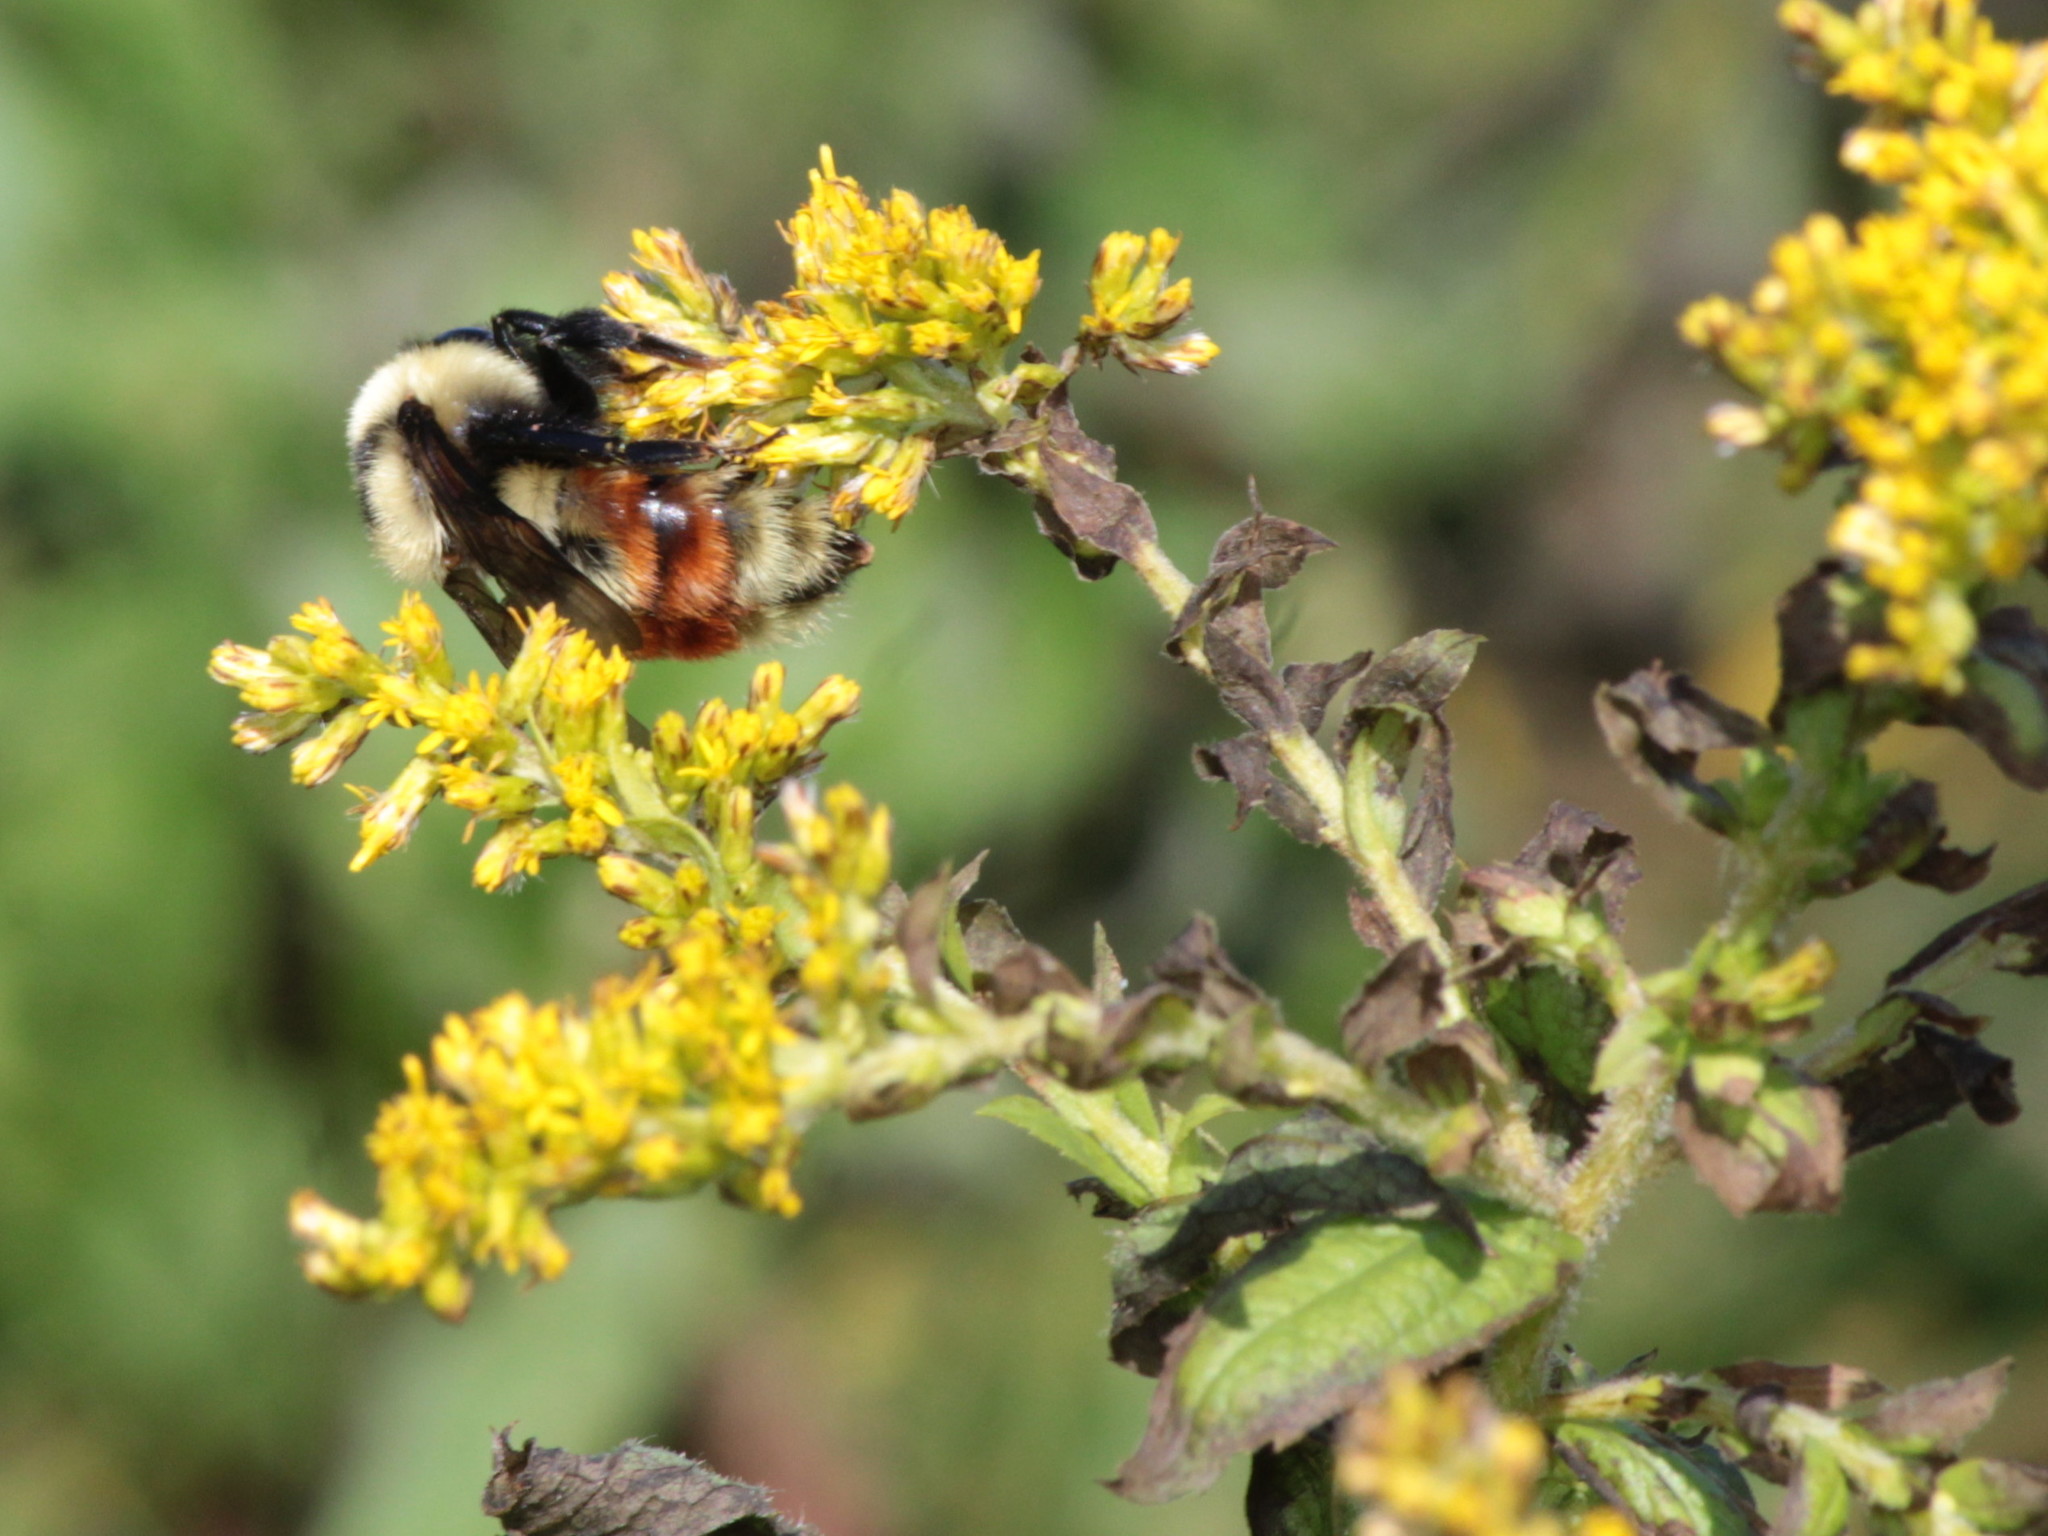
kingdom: Animalia
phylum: Arthropoda
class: Insecta
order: Hymenoptera
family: Apidae
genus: Bombus
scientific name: Bombus rufocinctus
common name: Red-belted bumble bee
